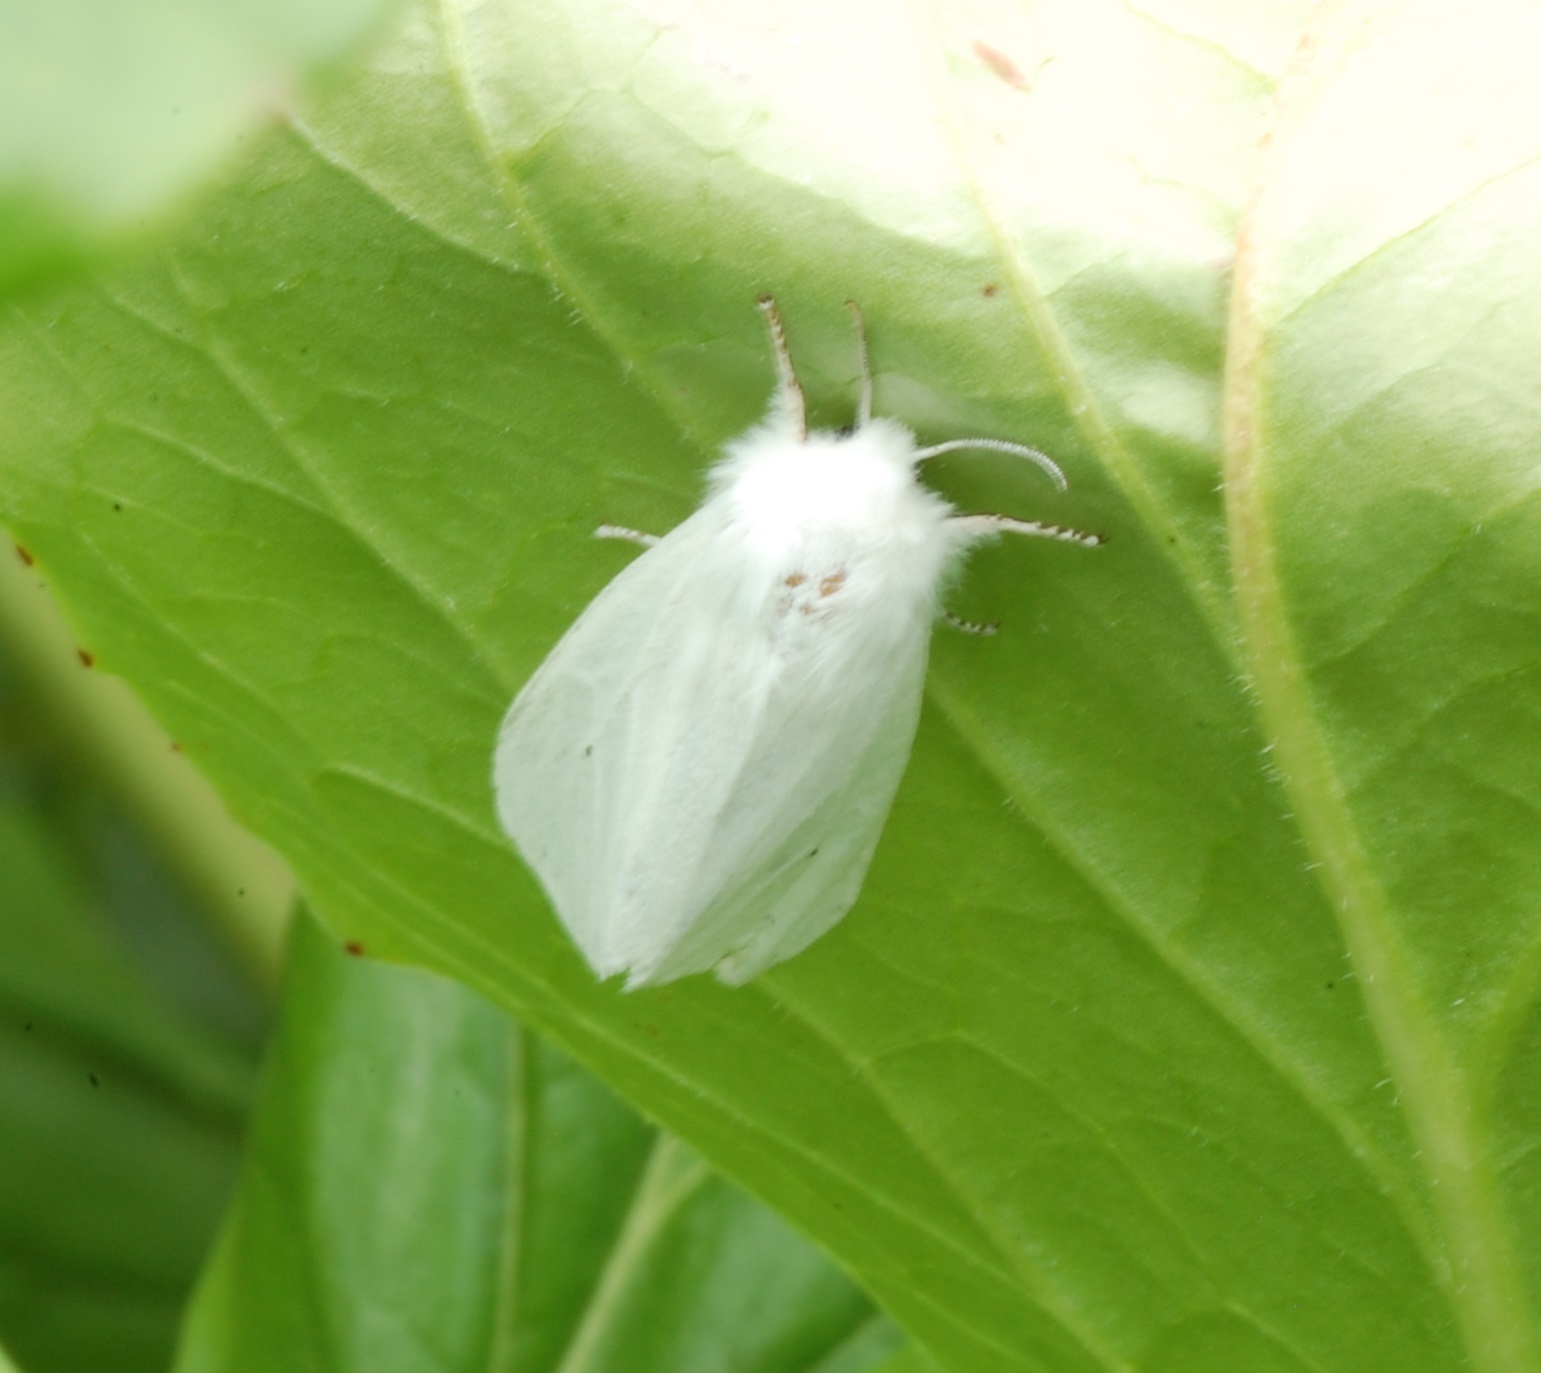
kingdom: Animalia
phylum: Arthropoda
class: Insecta
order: Lepidoptera
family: Erebidae
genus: Spilosoma
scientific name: Spilosoma virginica
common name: Virginia tiger moth
